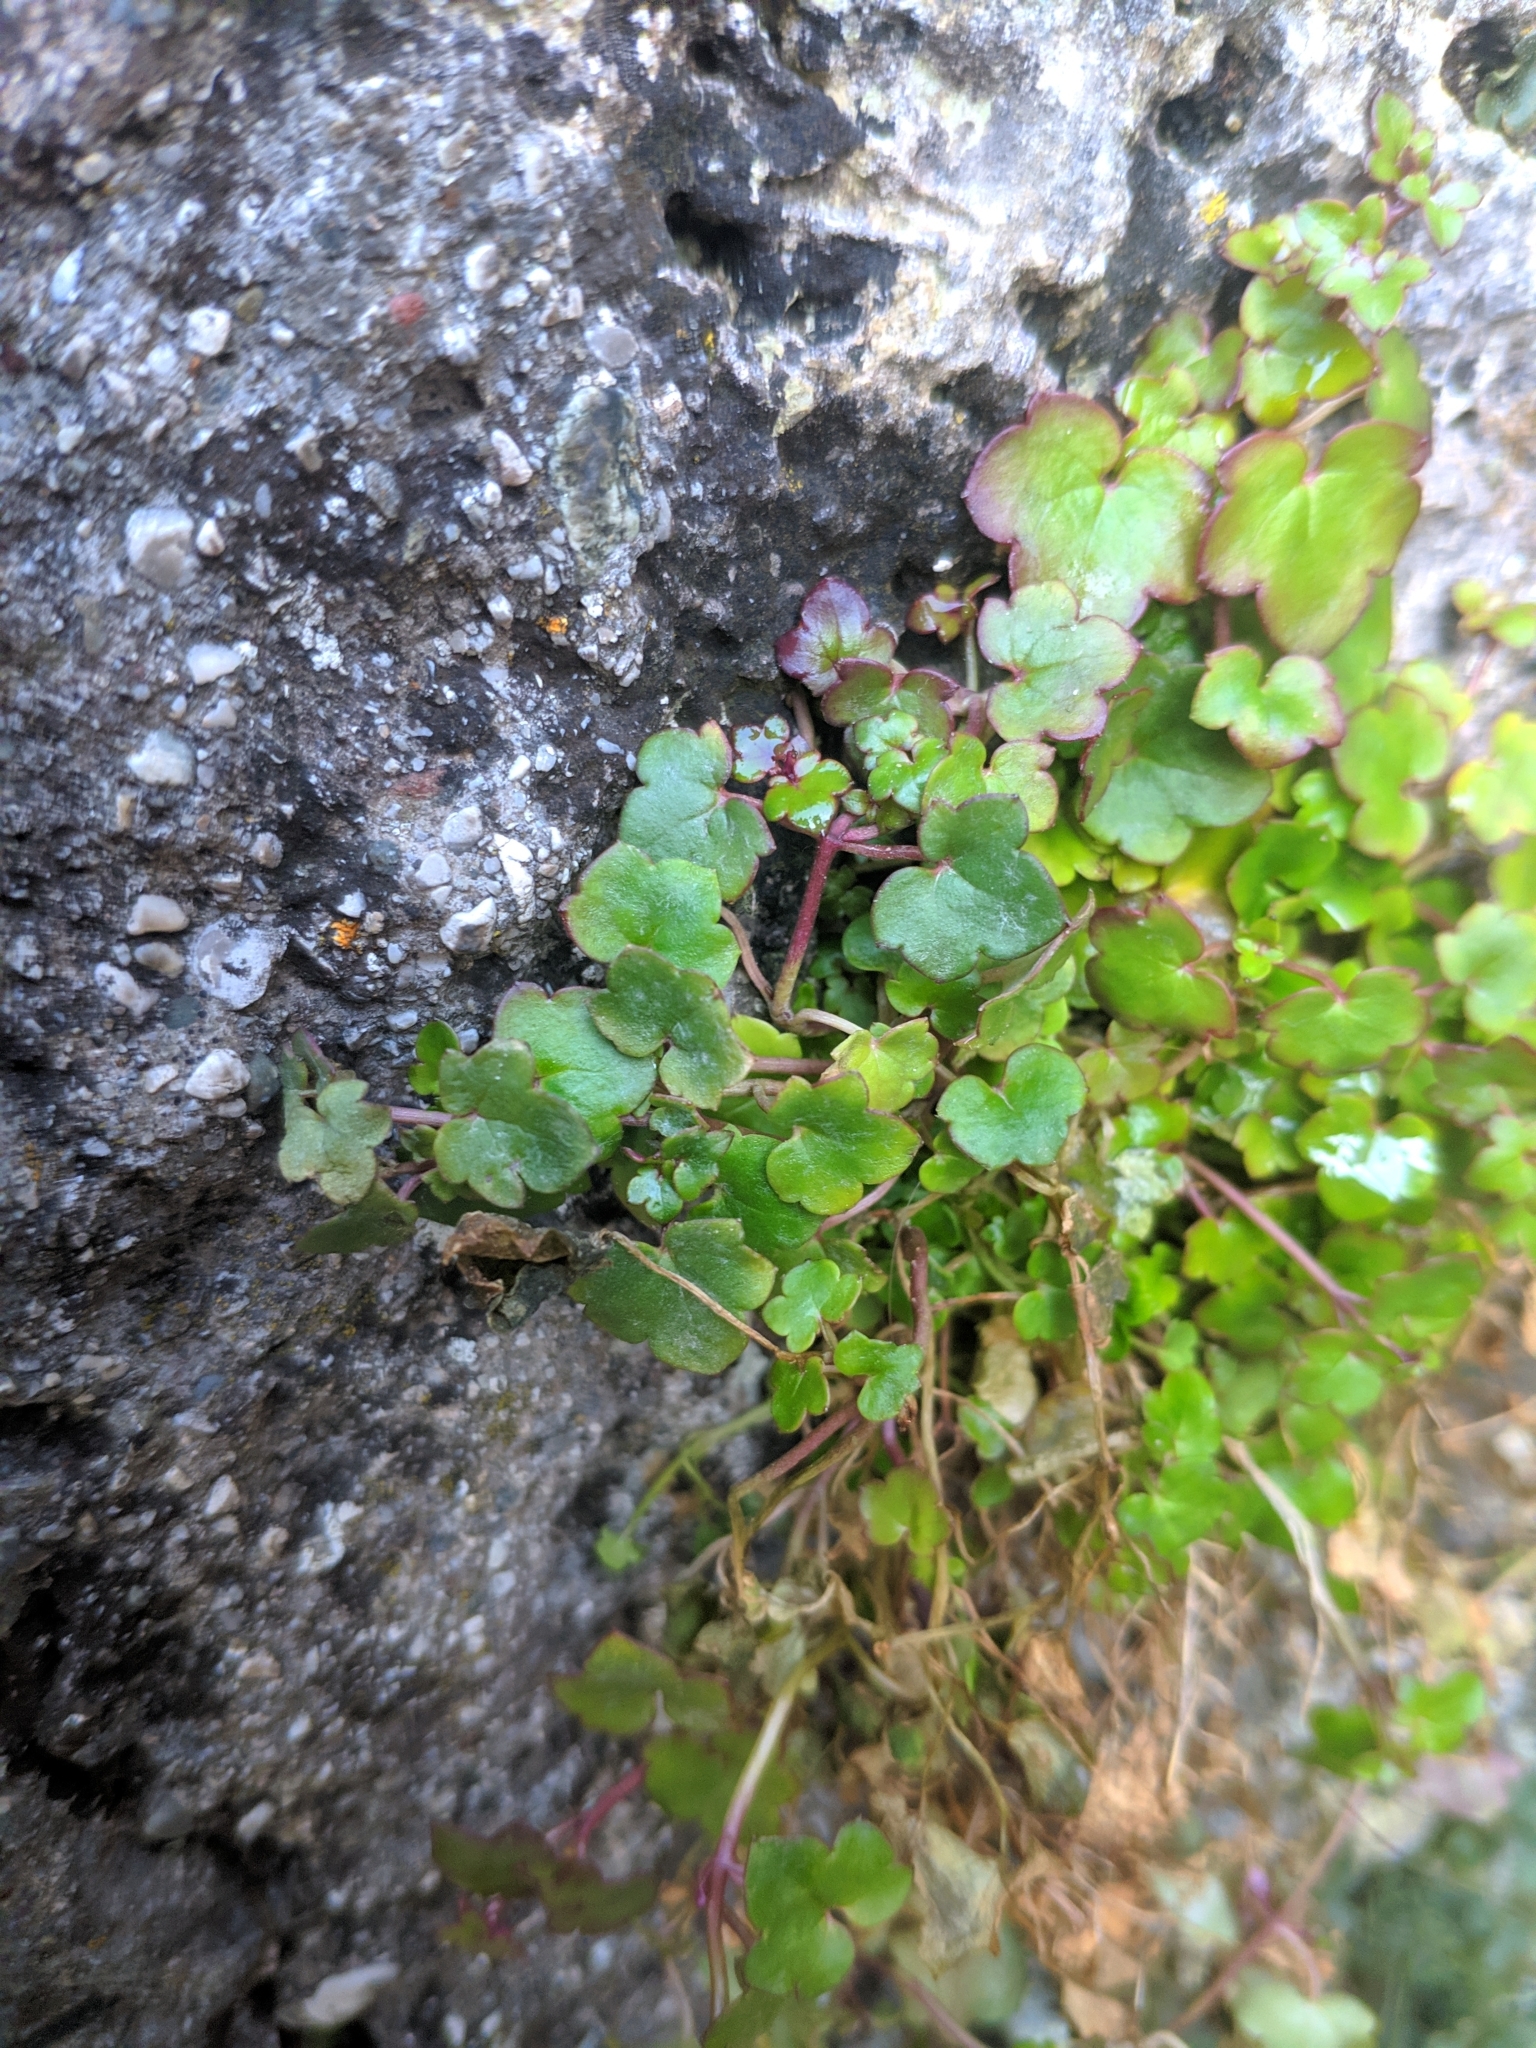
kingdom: Plantae
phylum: Tracheophyta
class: Magnoliopsida
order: Lamiales
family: Plantaginaceae
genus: Cymbalaria
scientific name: Cymbalaria muralis
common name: Ivy-leaved toadflax
